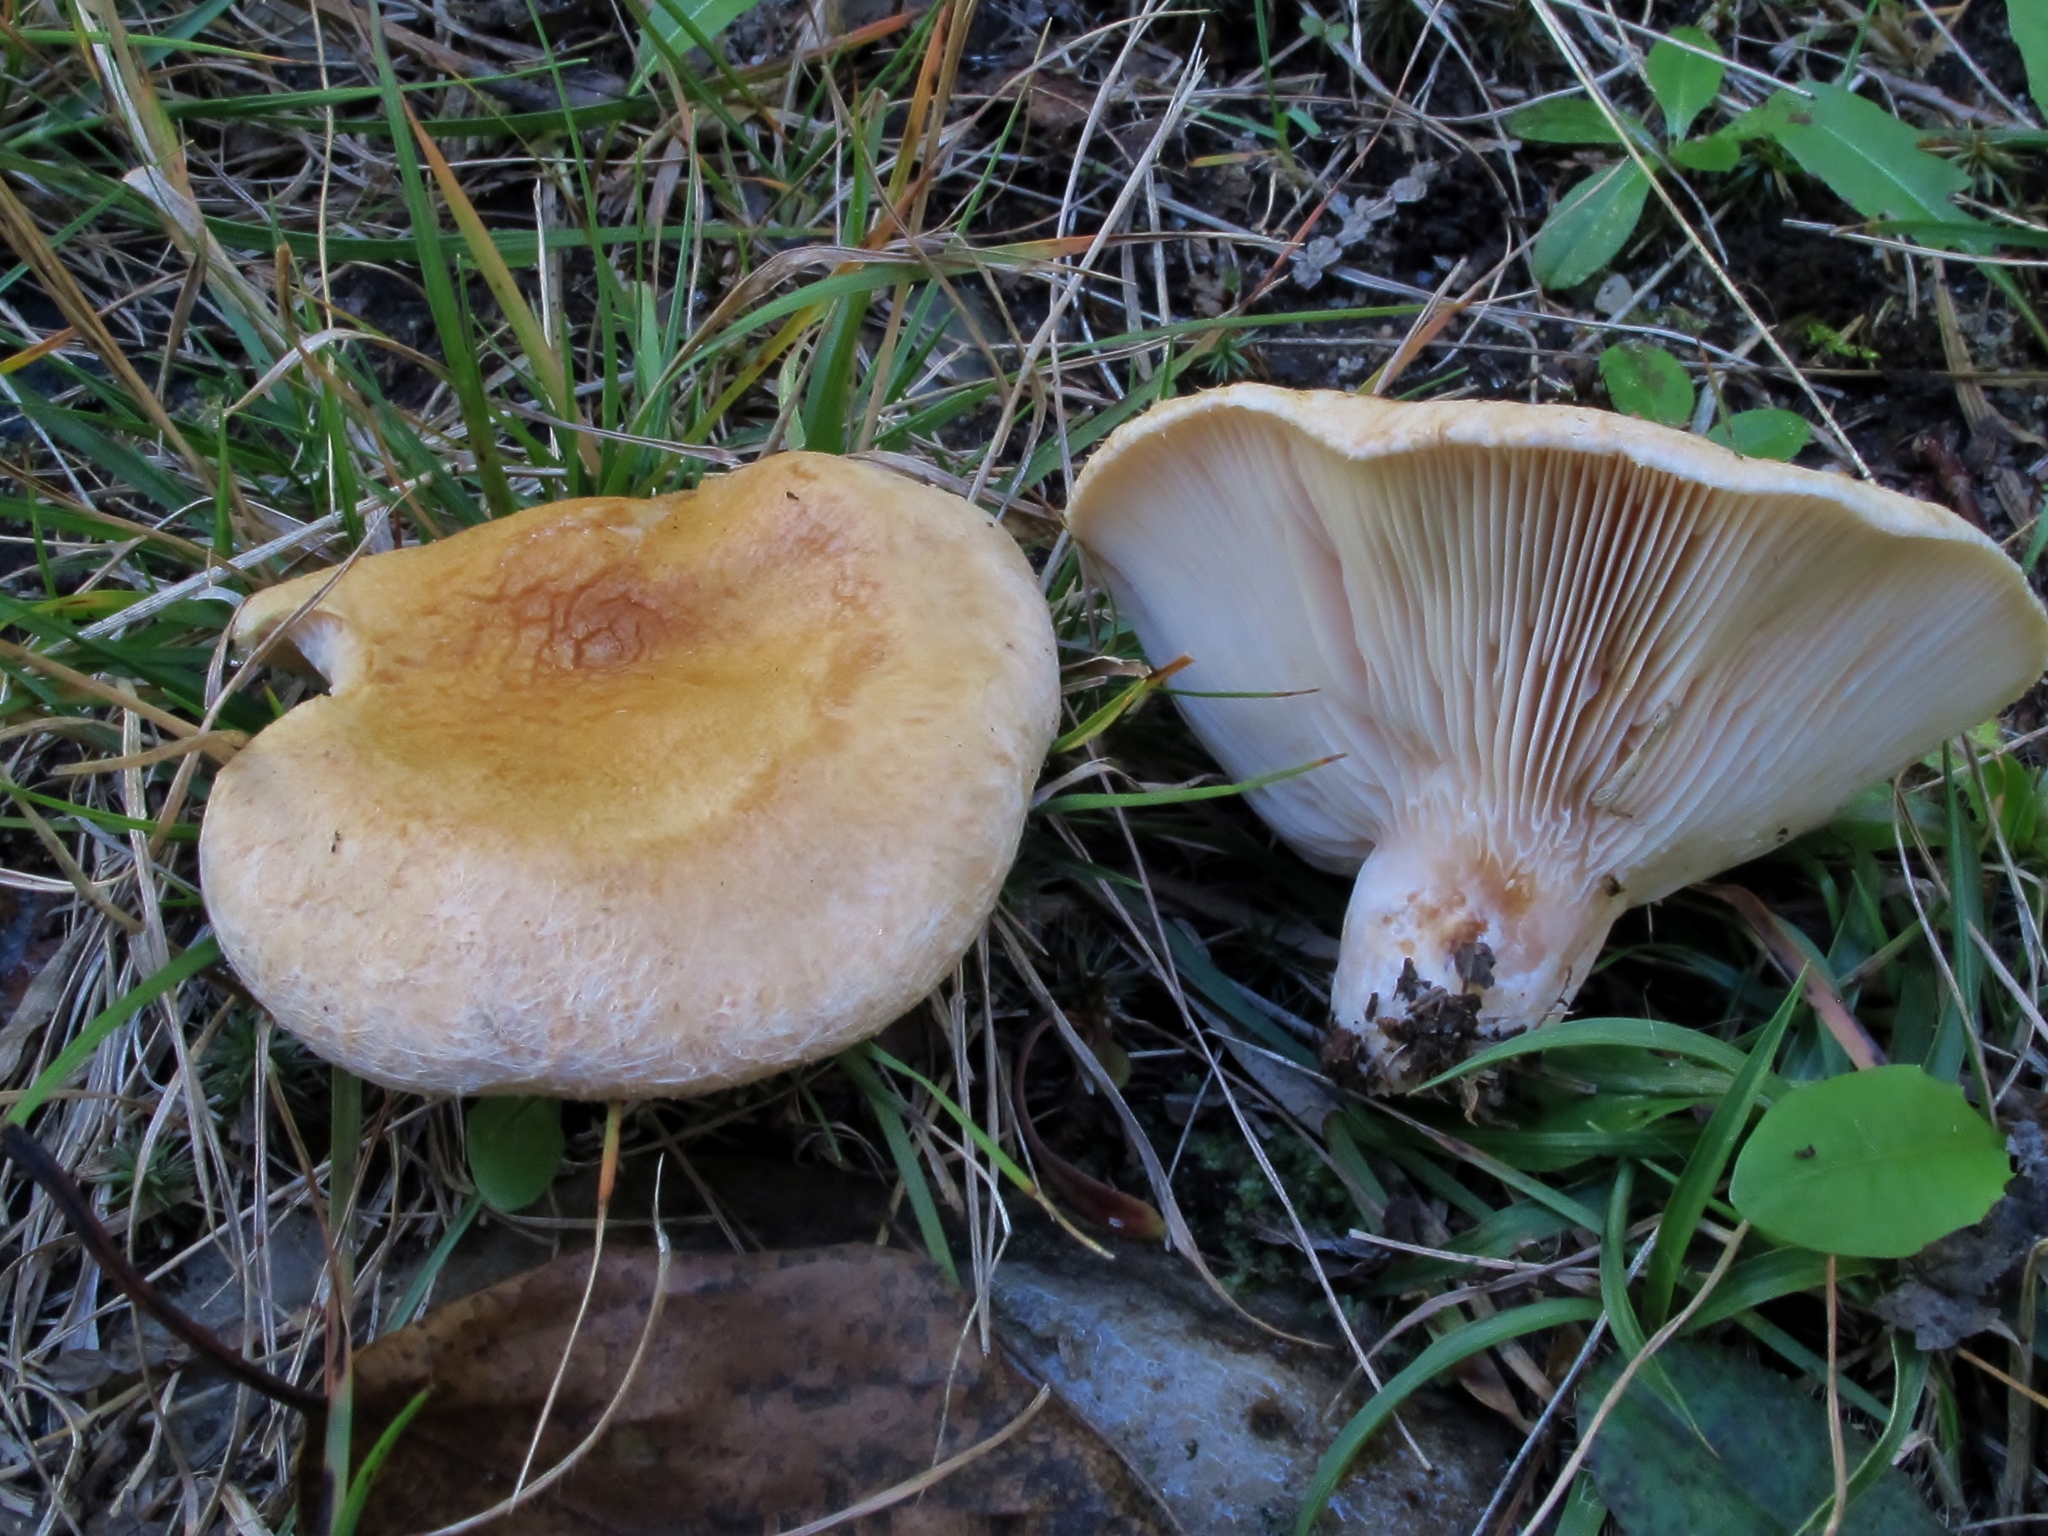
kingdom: Fungi
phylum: Basidiomycota
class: Agaricomycetes
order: Russulales
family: Russulaceae
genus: Lactarius
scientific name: Lactarius pubescens
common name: Bearded milkcap
